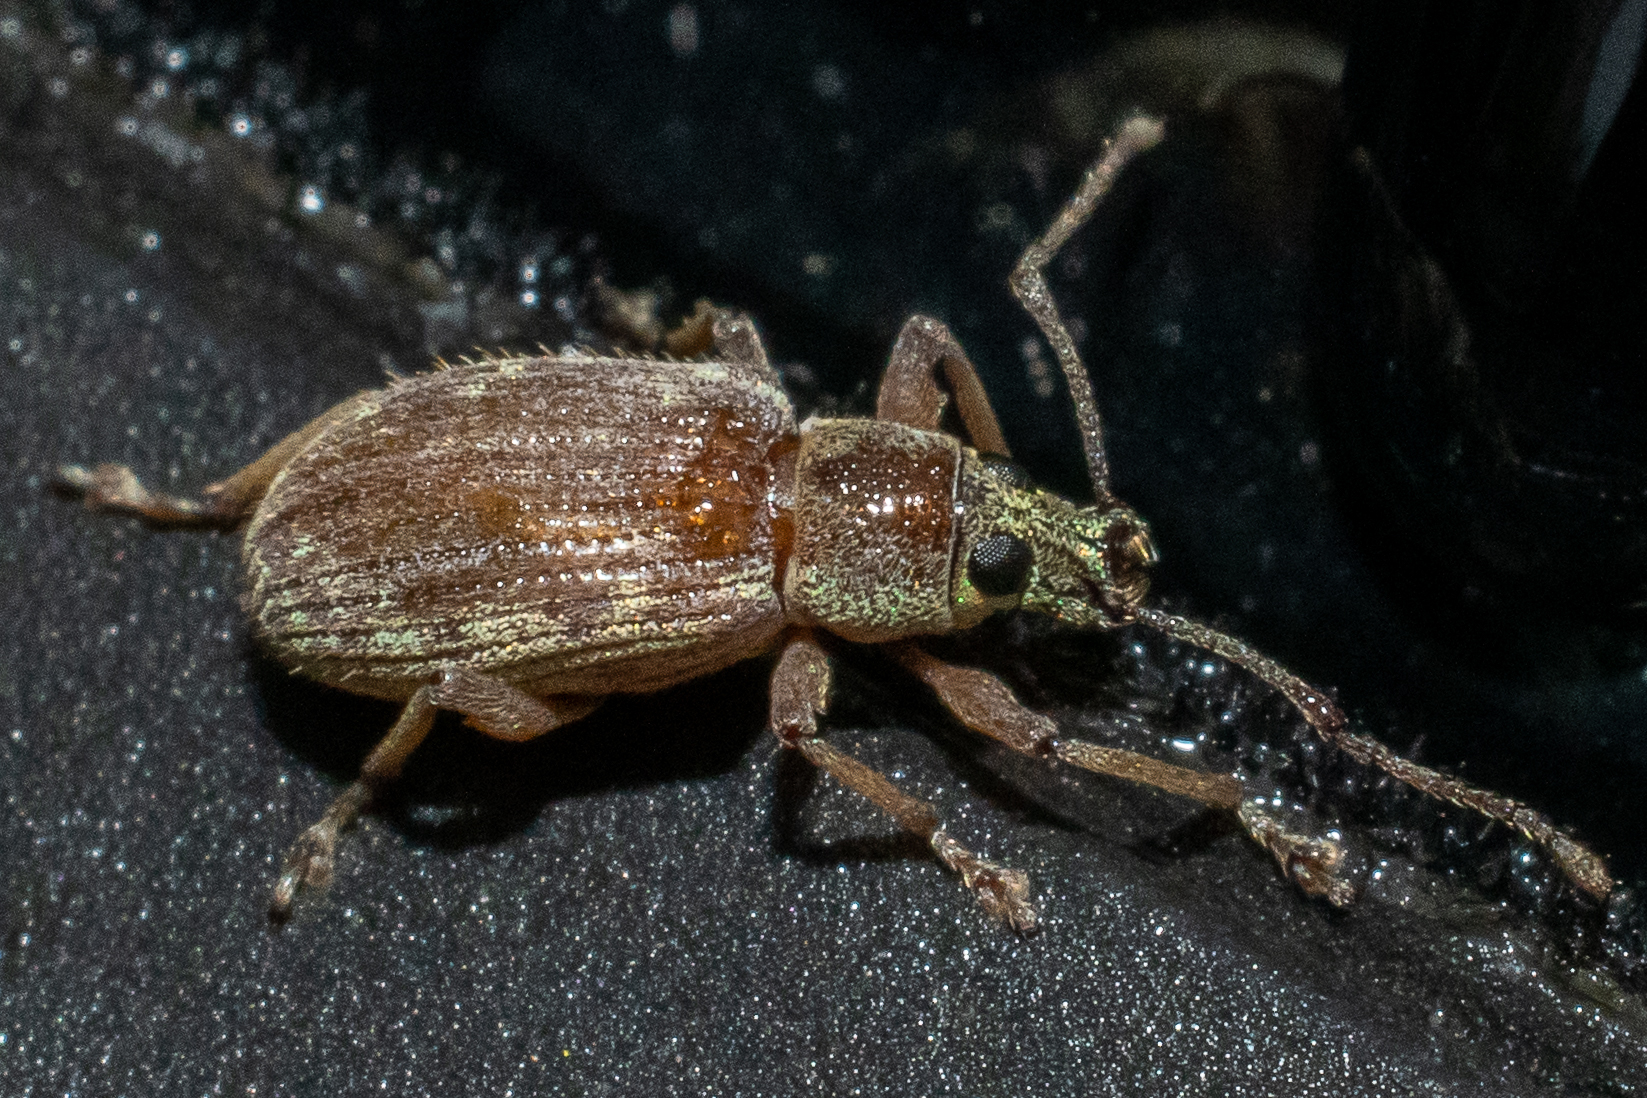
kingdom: Animalia
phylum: Arthropoda
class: Insecta
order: Coleoptera
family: Curculionidae
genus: Cyrtepistomus
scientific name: Cyrtepistomus castaneus
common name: Weevil
